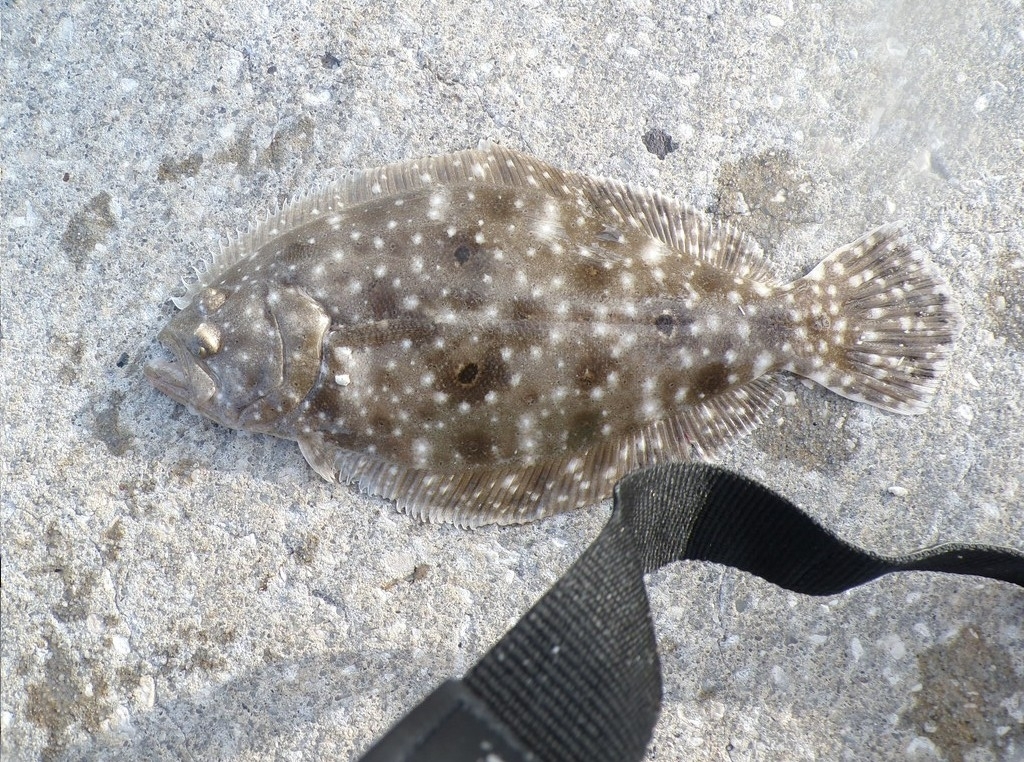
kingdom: Animalia
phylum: Chordata
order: Pleuronectiformes
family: Paralichthyidae
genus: Paralichthys
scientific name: Paralichthys albigutta
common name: Gulf flounder
